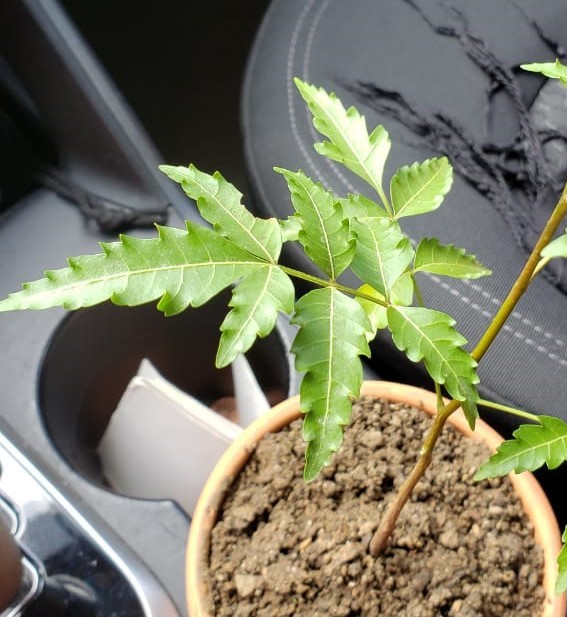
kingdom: Plantae
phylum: Tracheophyta
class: Magnoliopsida
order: Sapindales
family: Meliaceae
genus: Azadirachta
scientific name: Azadirachta indica
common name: Neem
